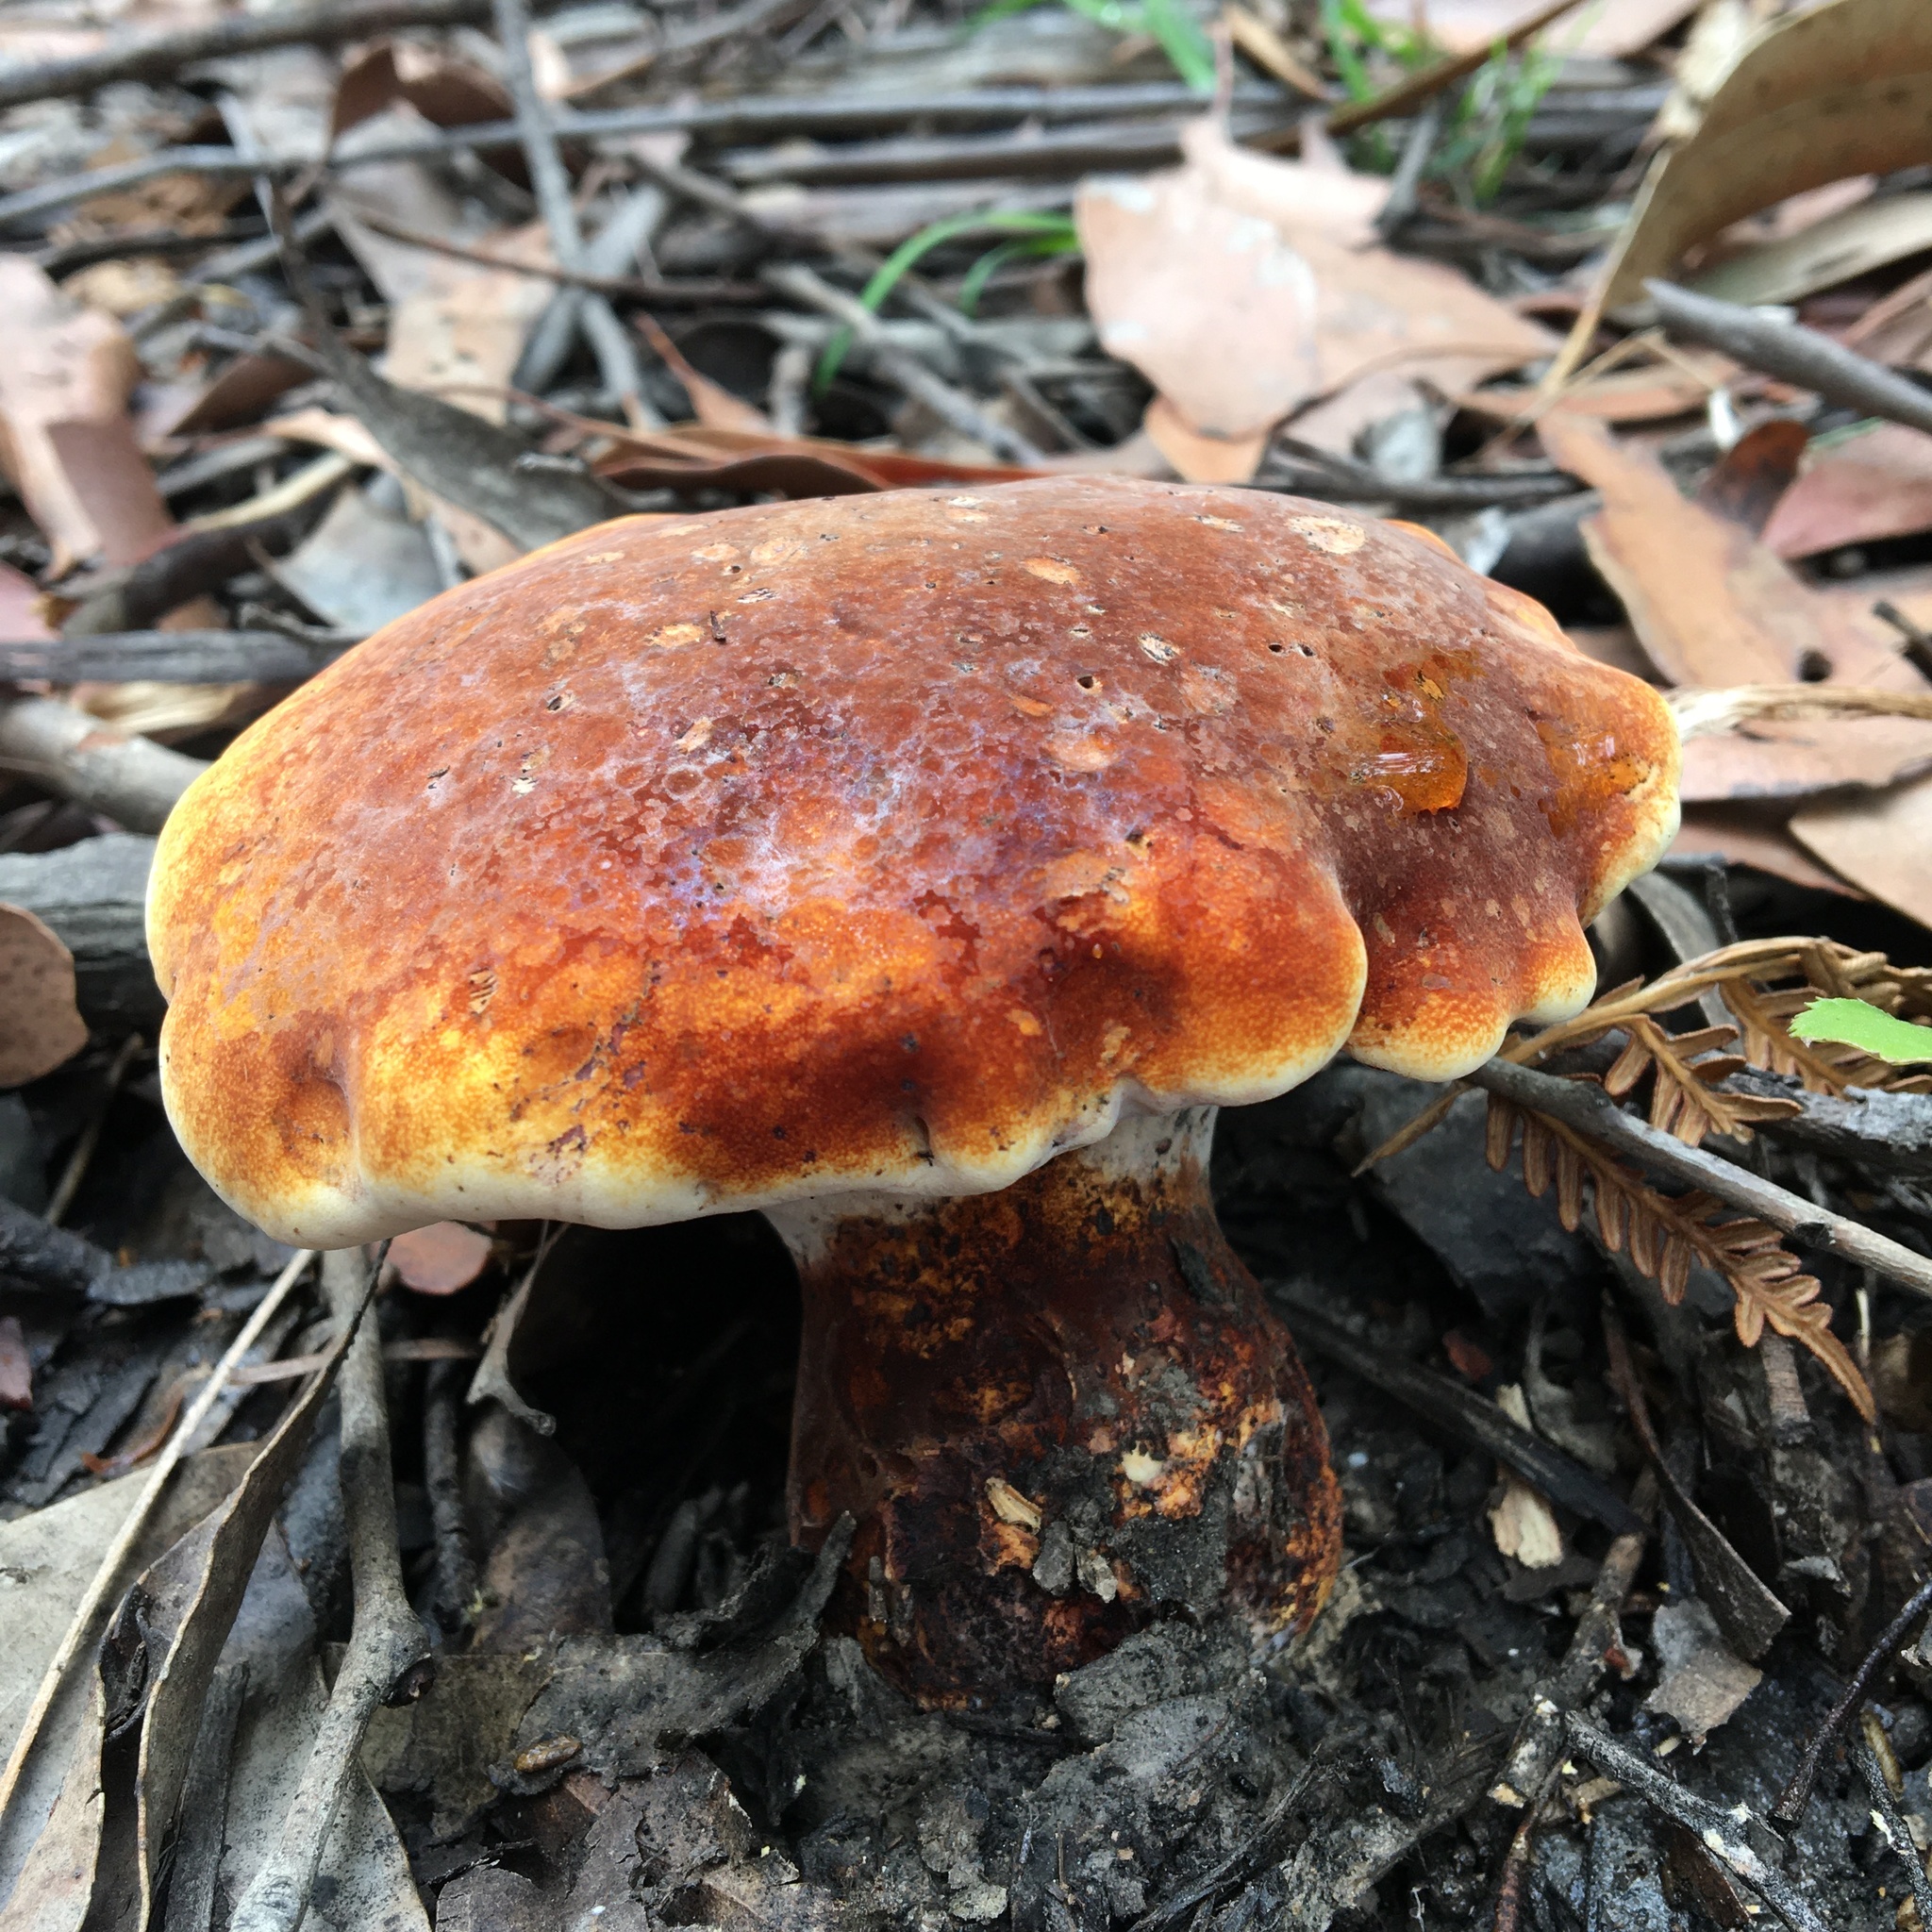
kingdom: Fungi
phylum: Basidiomycota
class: Agaricomycetes
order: Polyporales
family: Fomitopsidaceae
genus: Fomitopsis
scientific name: Fomitopsis
